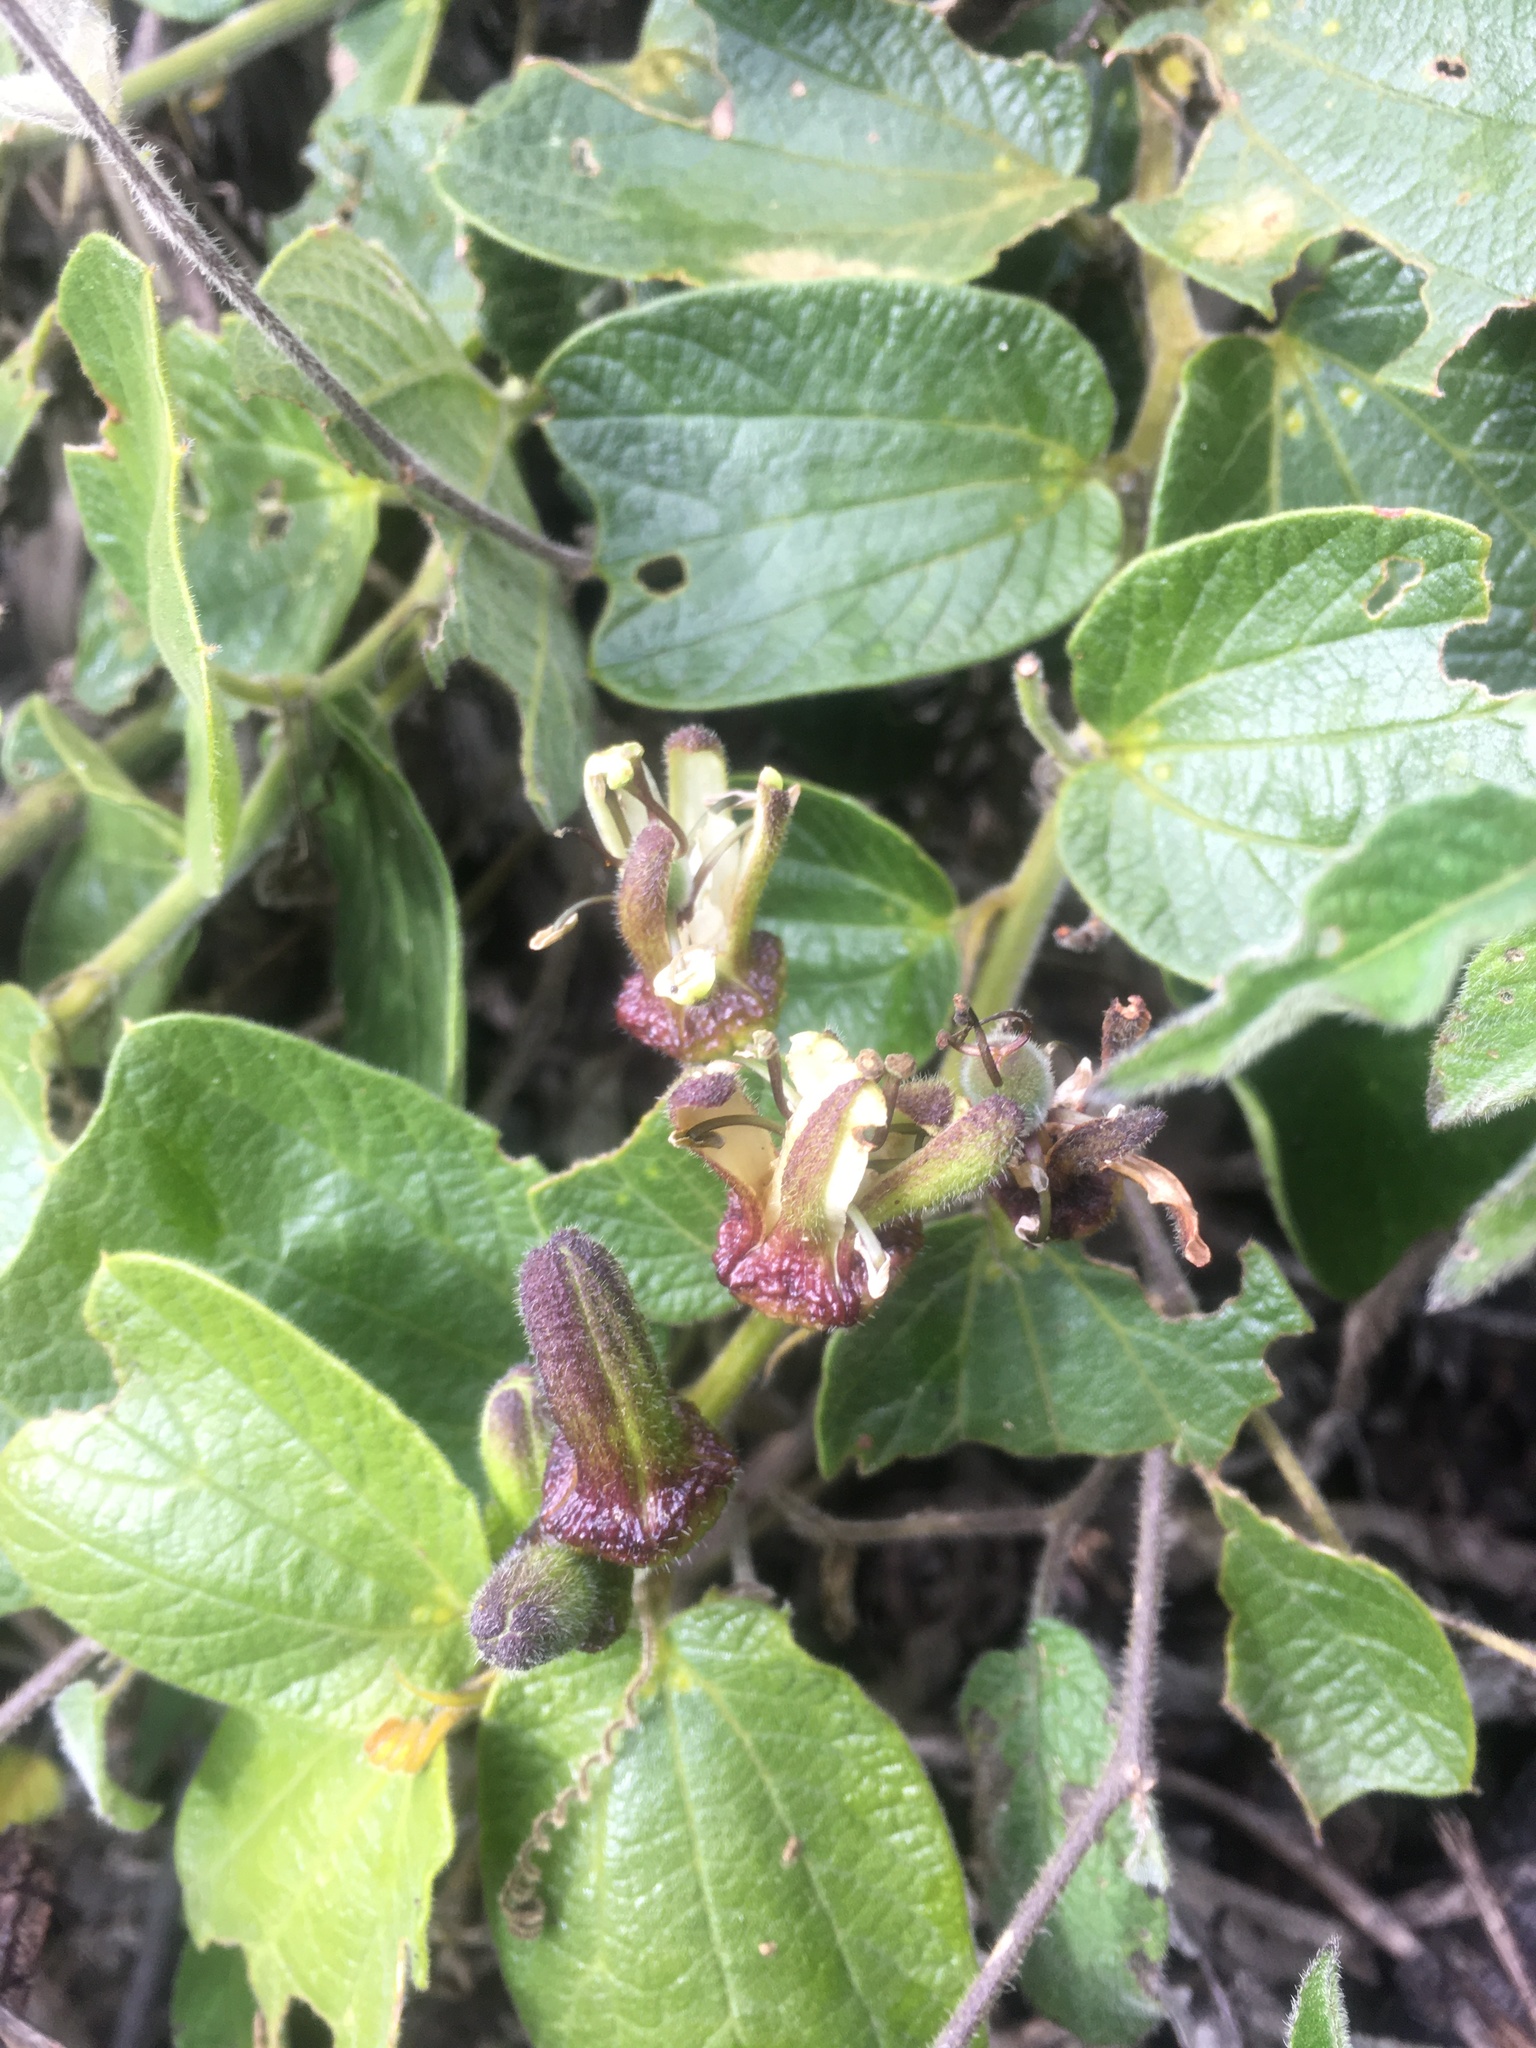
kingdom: Plantae
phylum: Tracheophyta
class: Magnoliopsida
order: Malpighiales
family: Passifloraceae
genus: Passiflora
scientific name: Passiflora bogotensis
